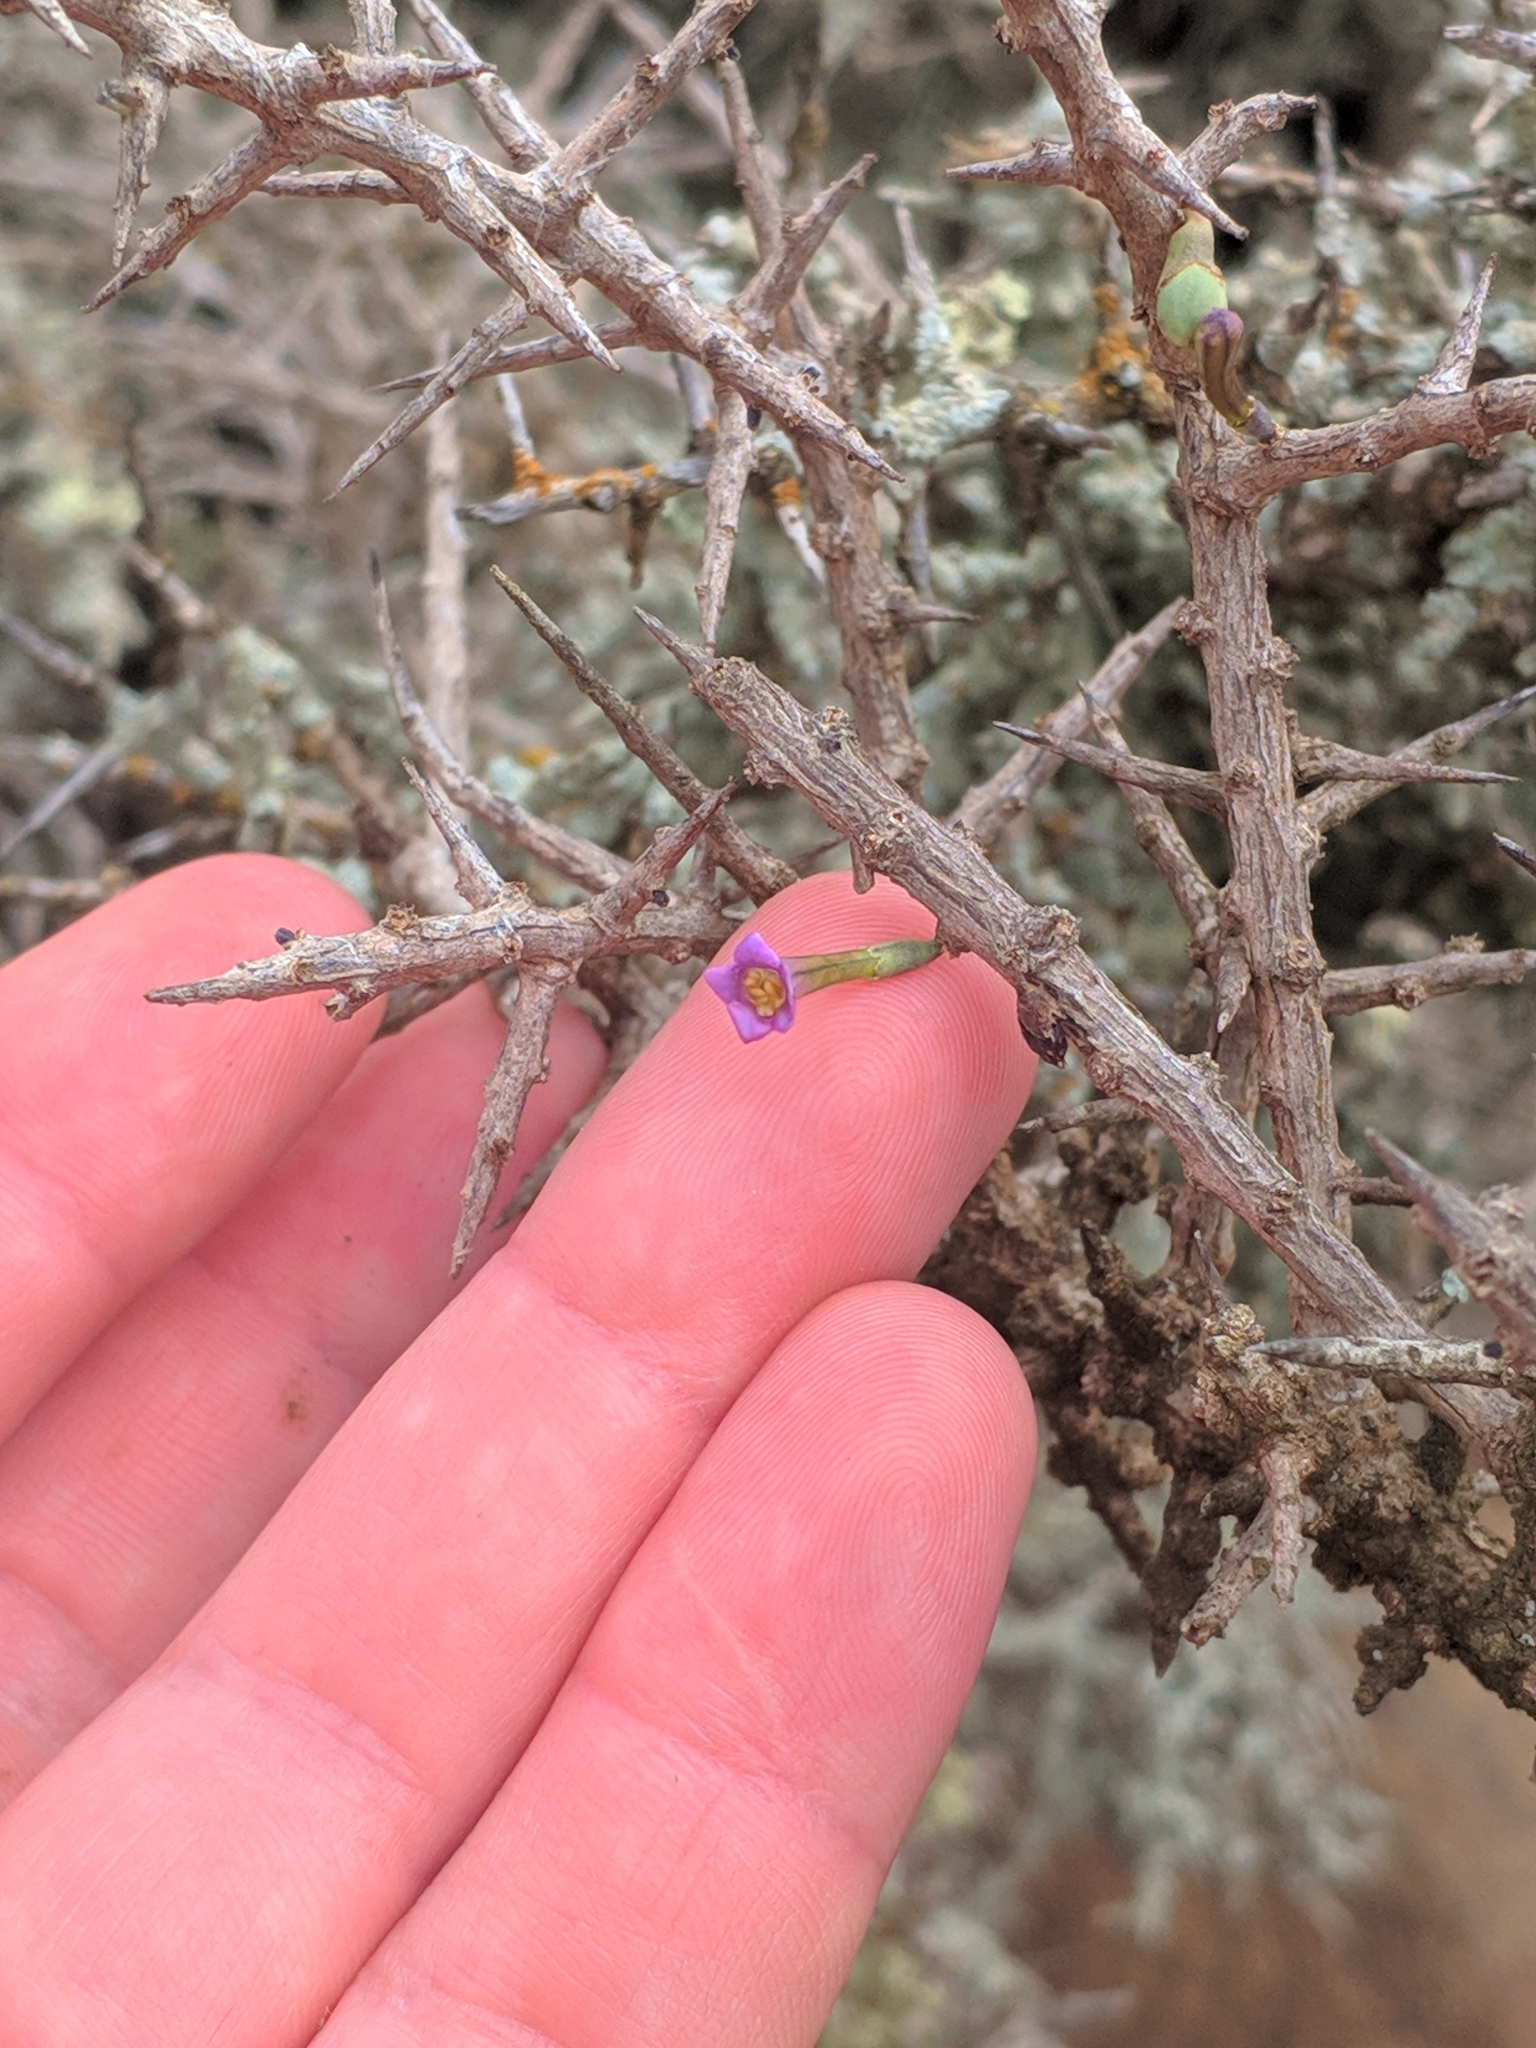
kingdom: Plantae
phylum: Tracheophyta
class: Magnoliopsida
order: Solanales
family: Solanaceae
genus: Lycium
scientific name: Lycium intricatum
